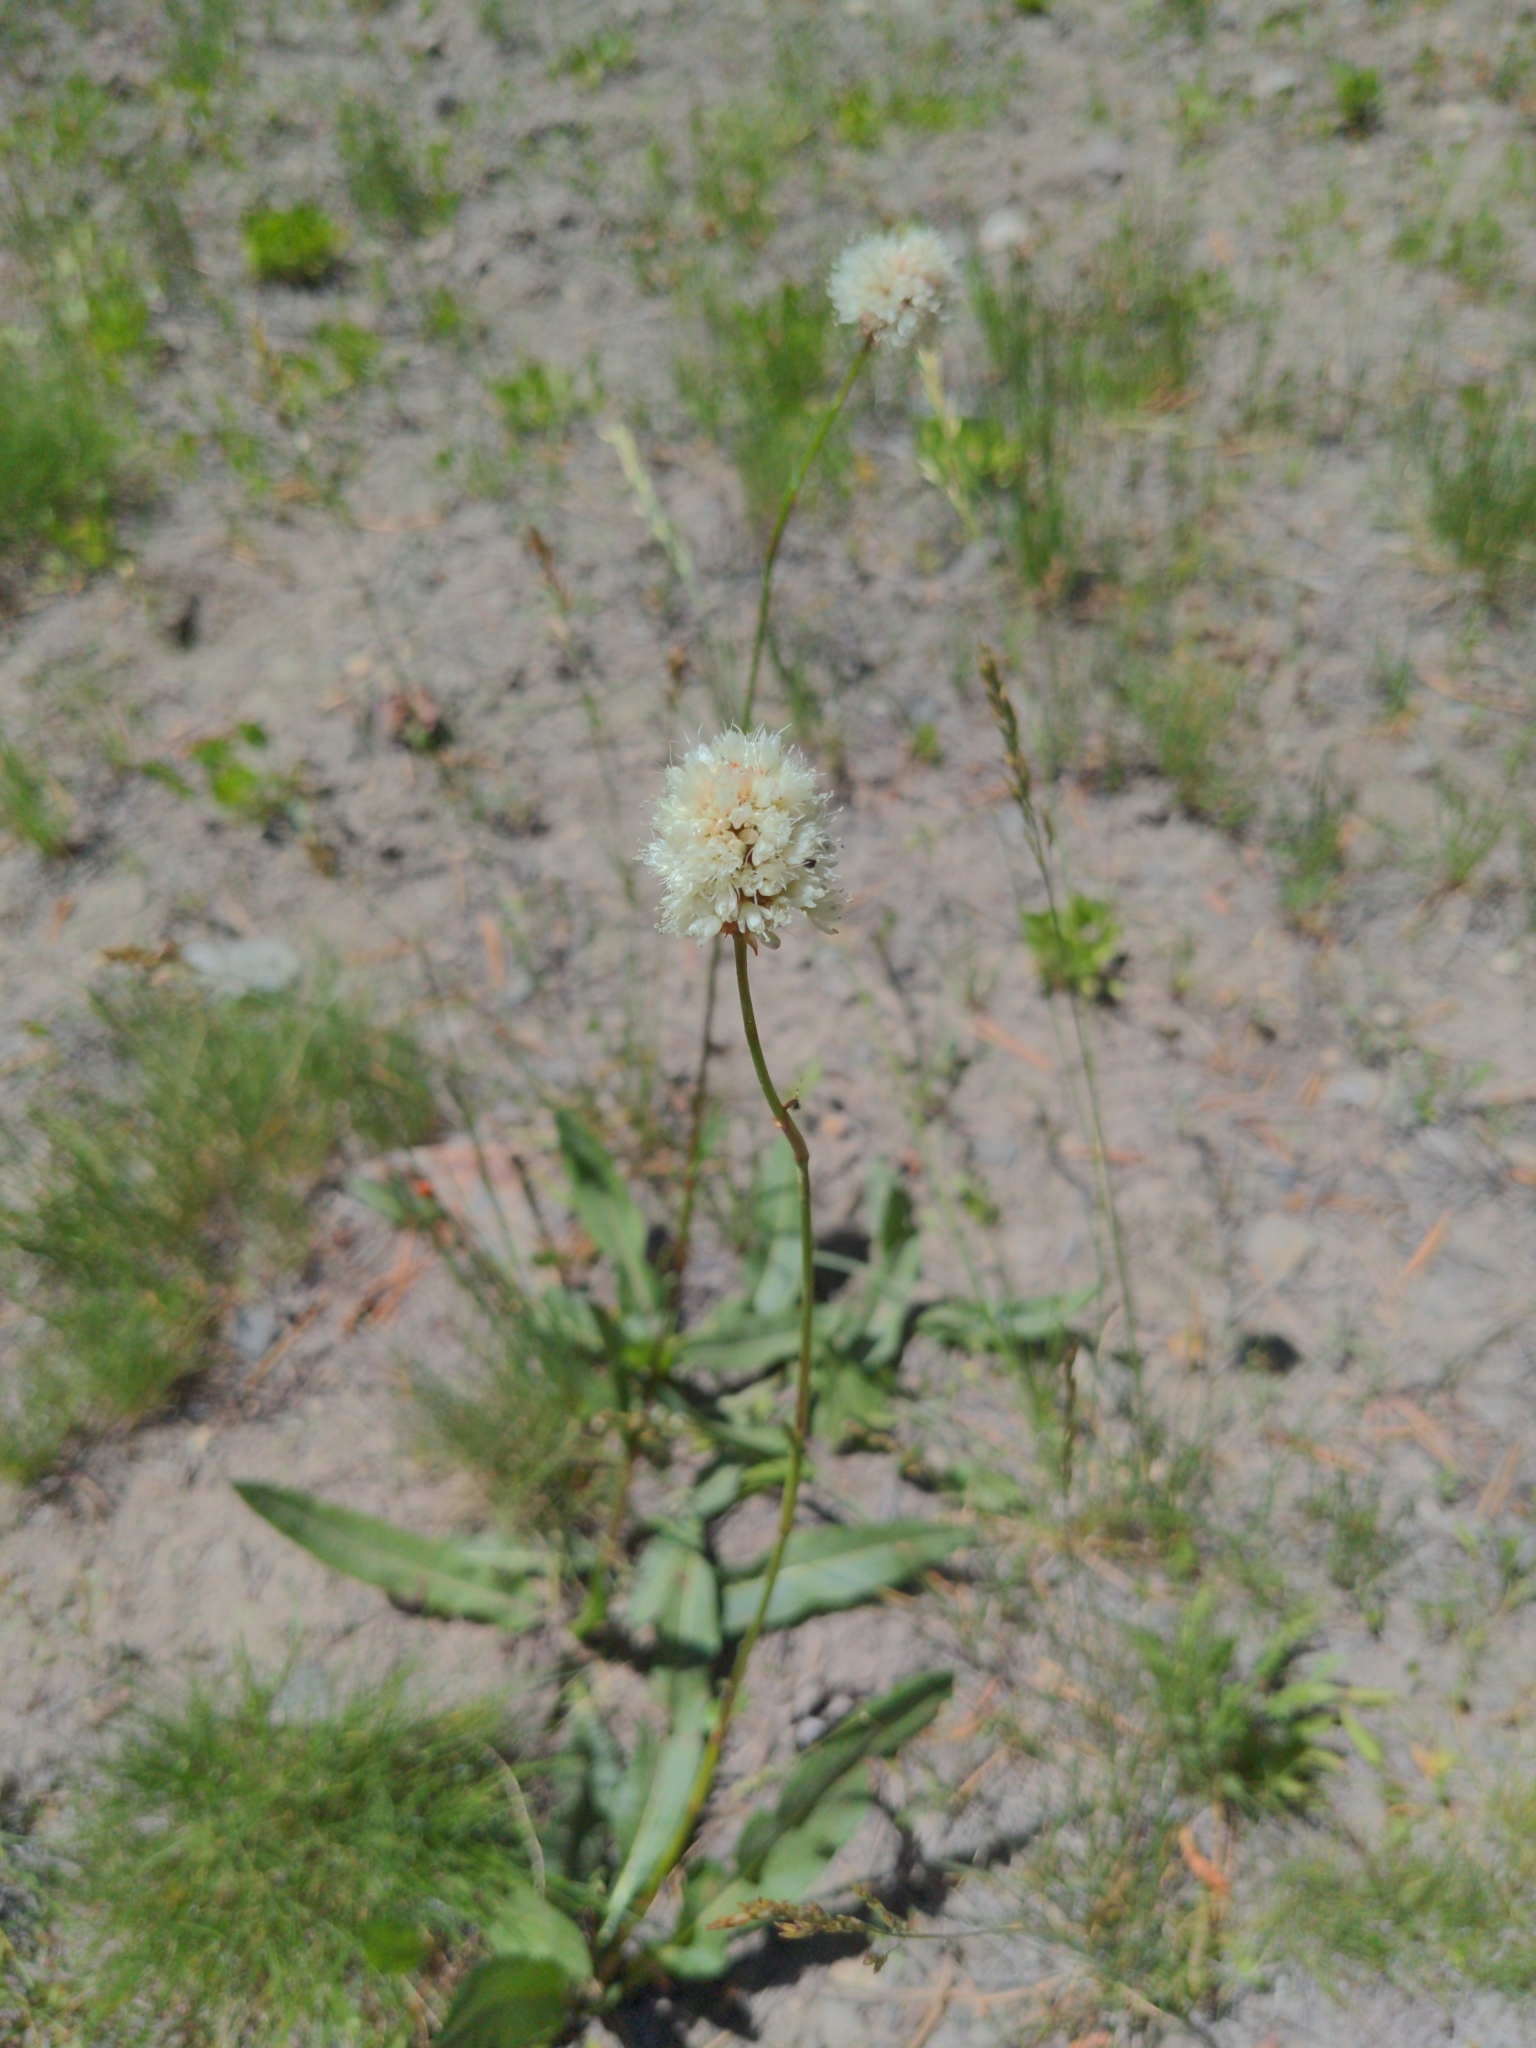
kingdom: Plantae
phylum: Tracheophyta
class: Magnoliopsida
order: Caryophyllales
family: Polygonaceae
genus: Bistorta
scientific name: Bistorta bistortoides
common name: American bistort
